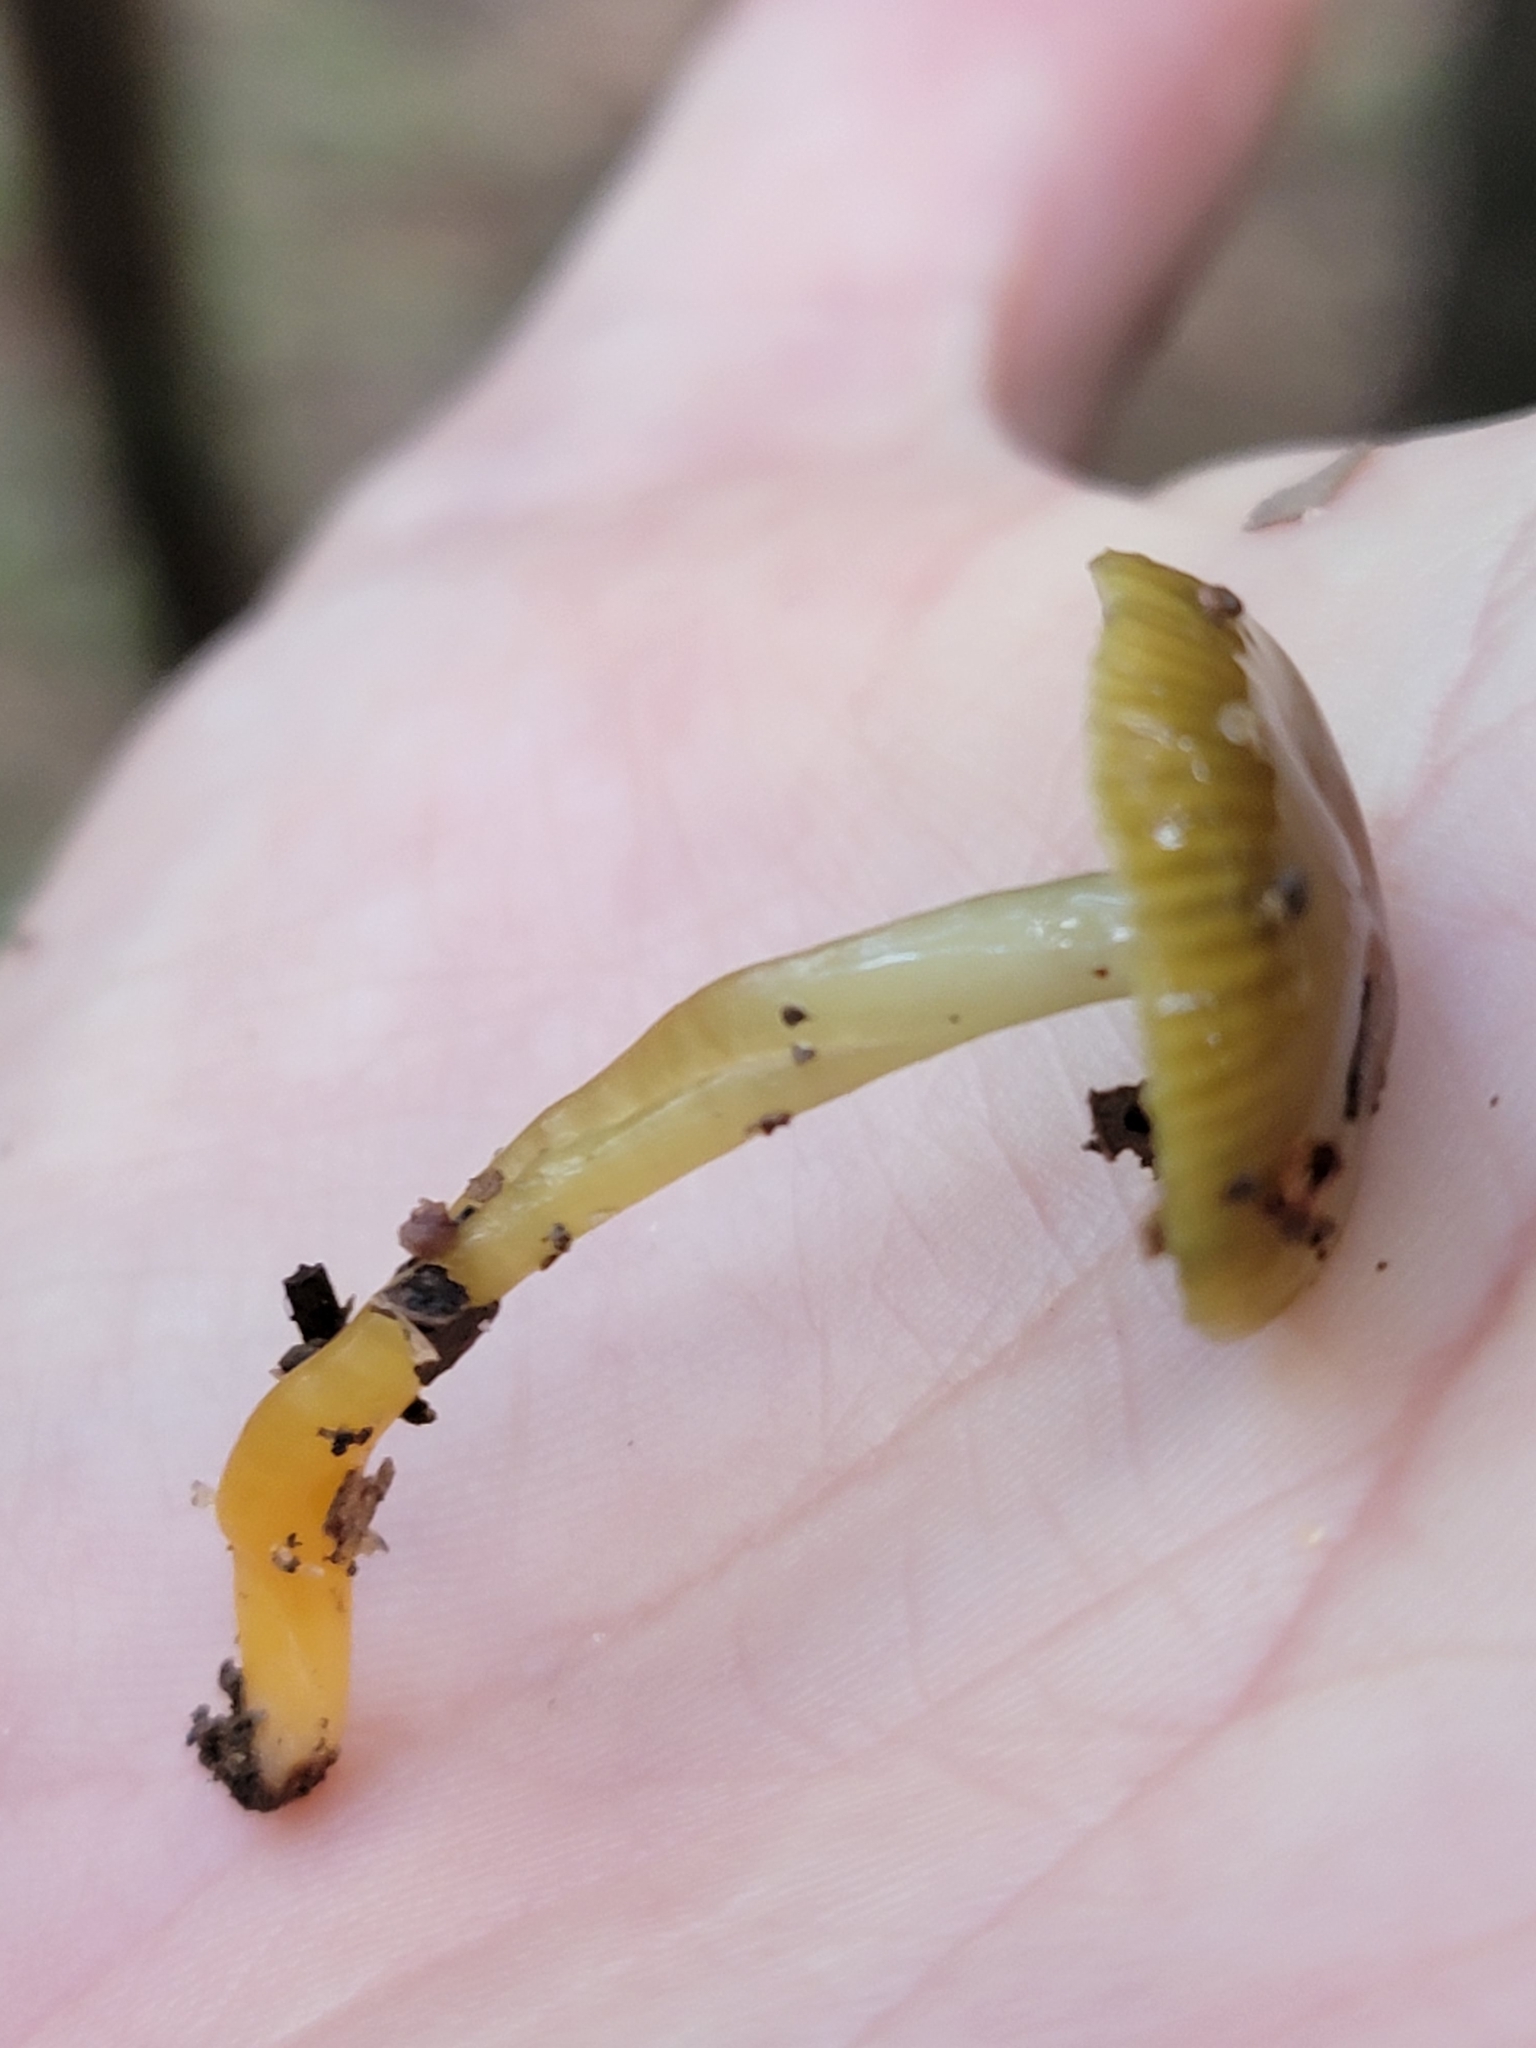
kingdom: Fungi
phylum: Basidiomycota
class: Agaricomycetes
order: Agaricales
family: Hygrophoraceae
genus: Gliophorus
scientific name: Gliophorus psittacinus
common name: Parrot wax-cap
